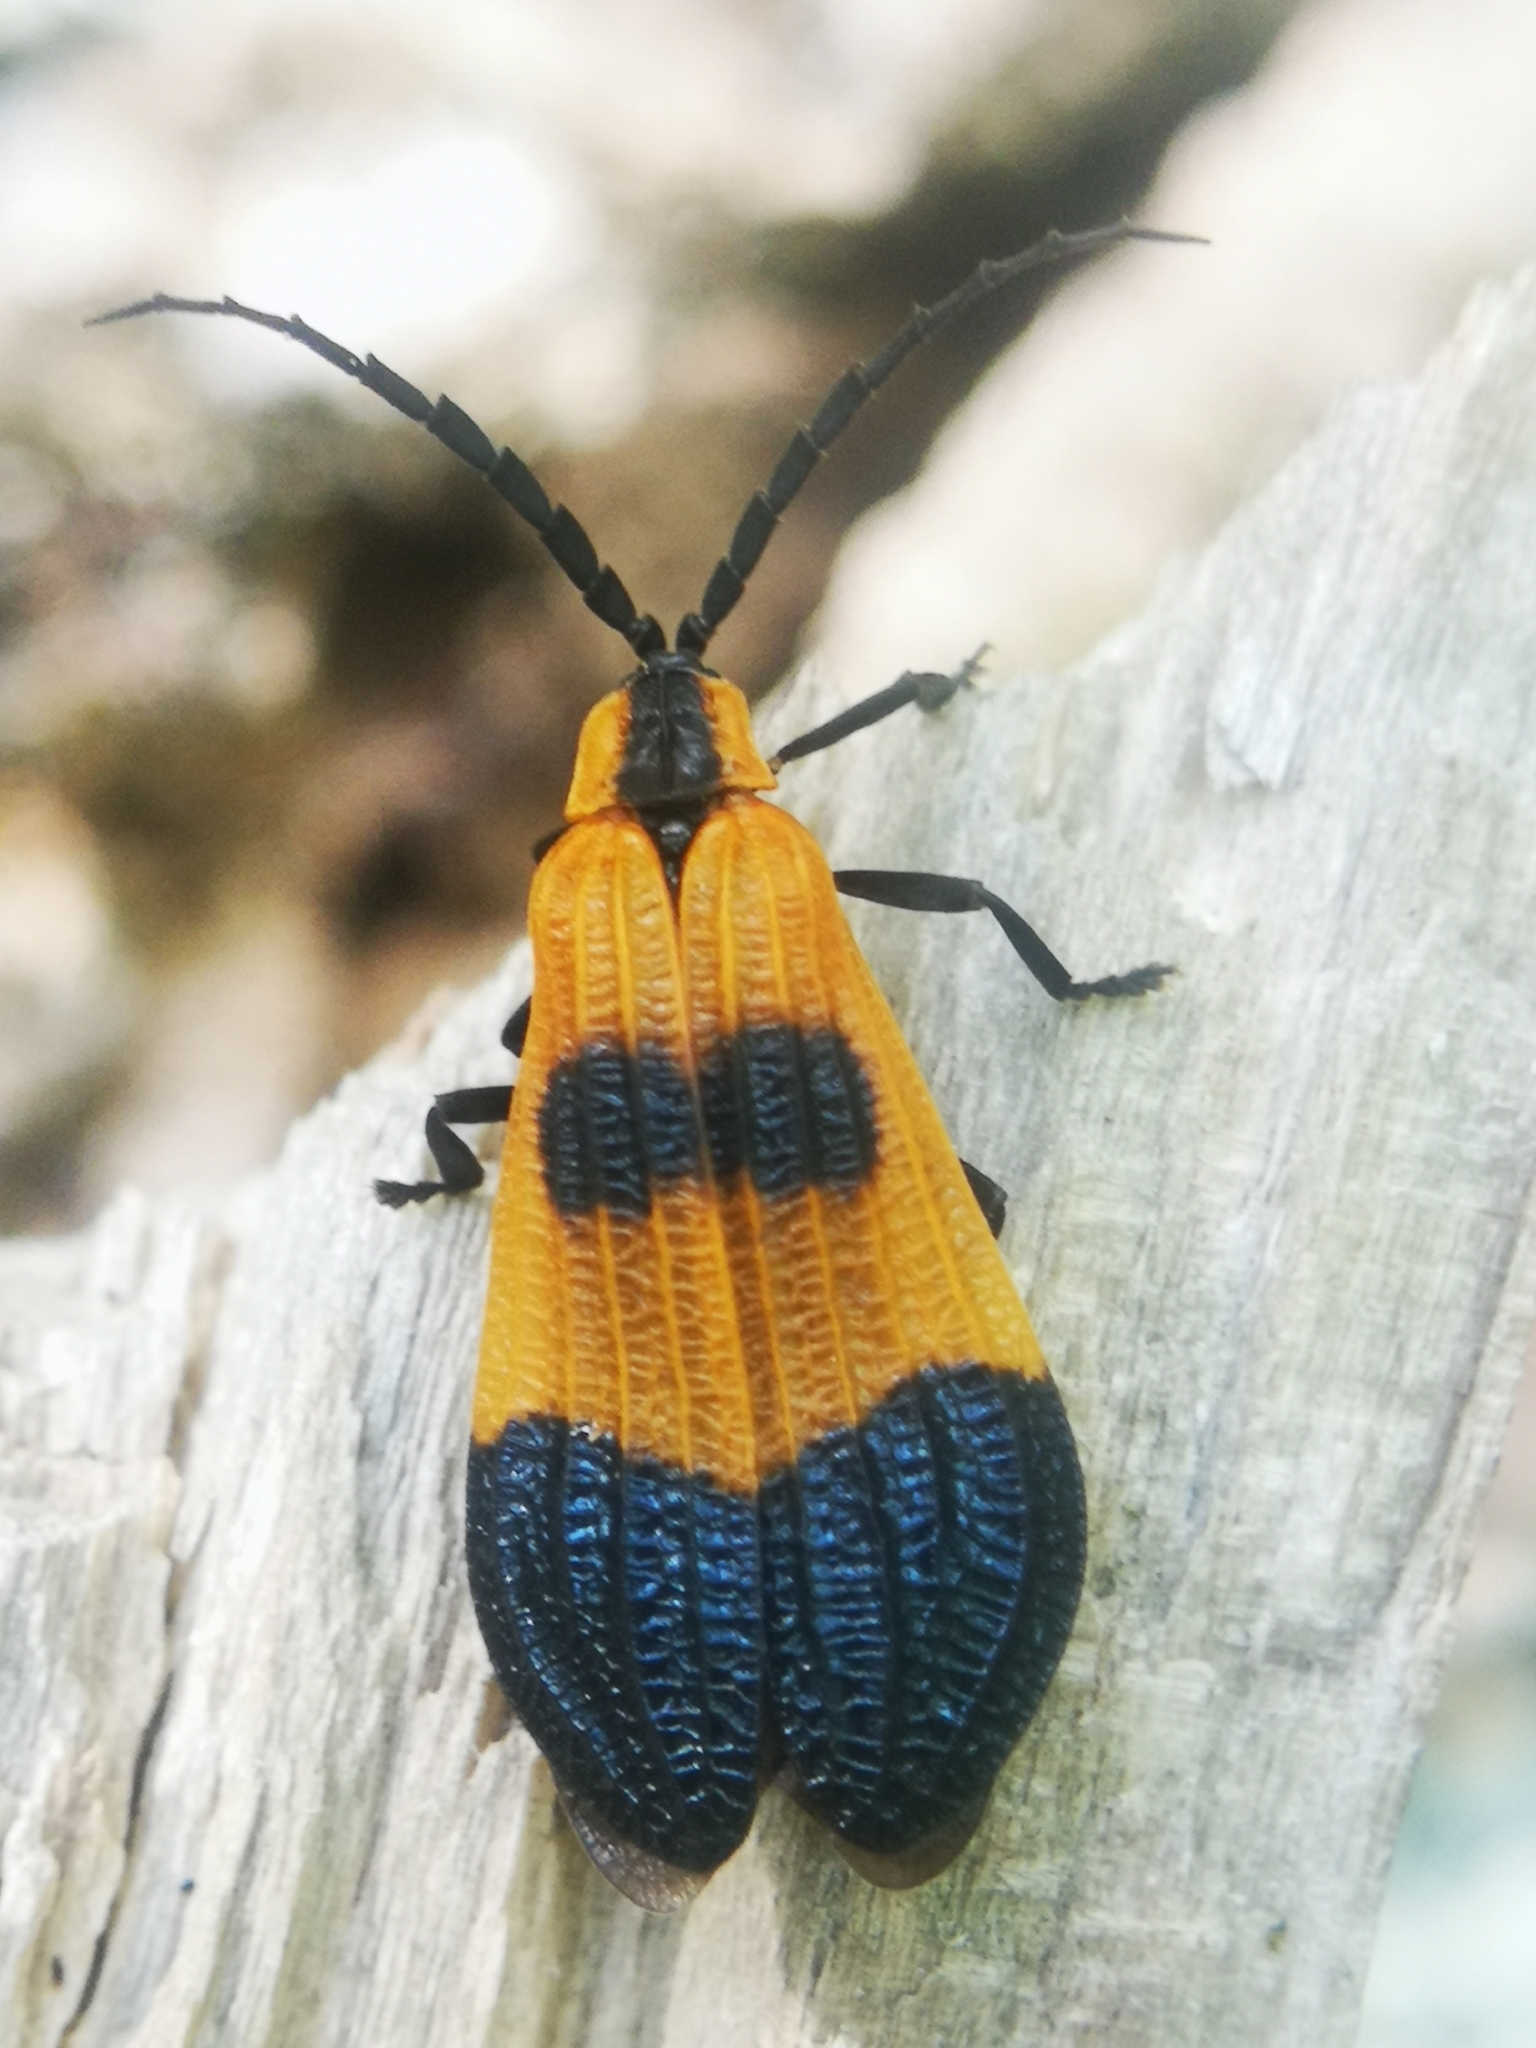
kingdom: Animalia
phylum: Arthropoda
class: Insecta
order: Coleoptera
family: Lycidae
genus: Calopteron
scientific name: Calopteron terminale
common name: End band net-winged beetle
